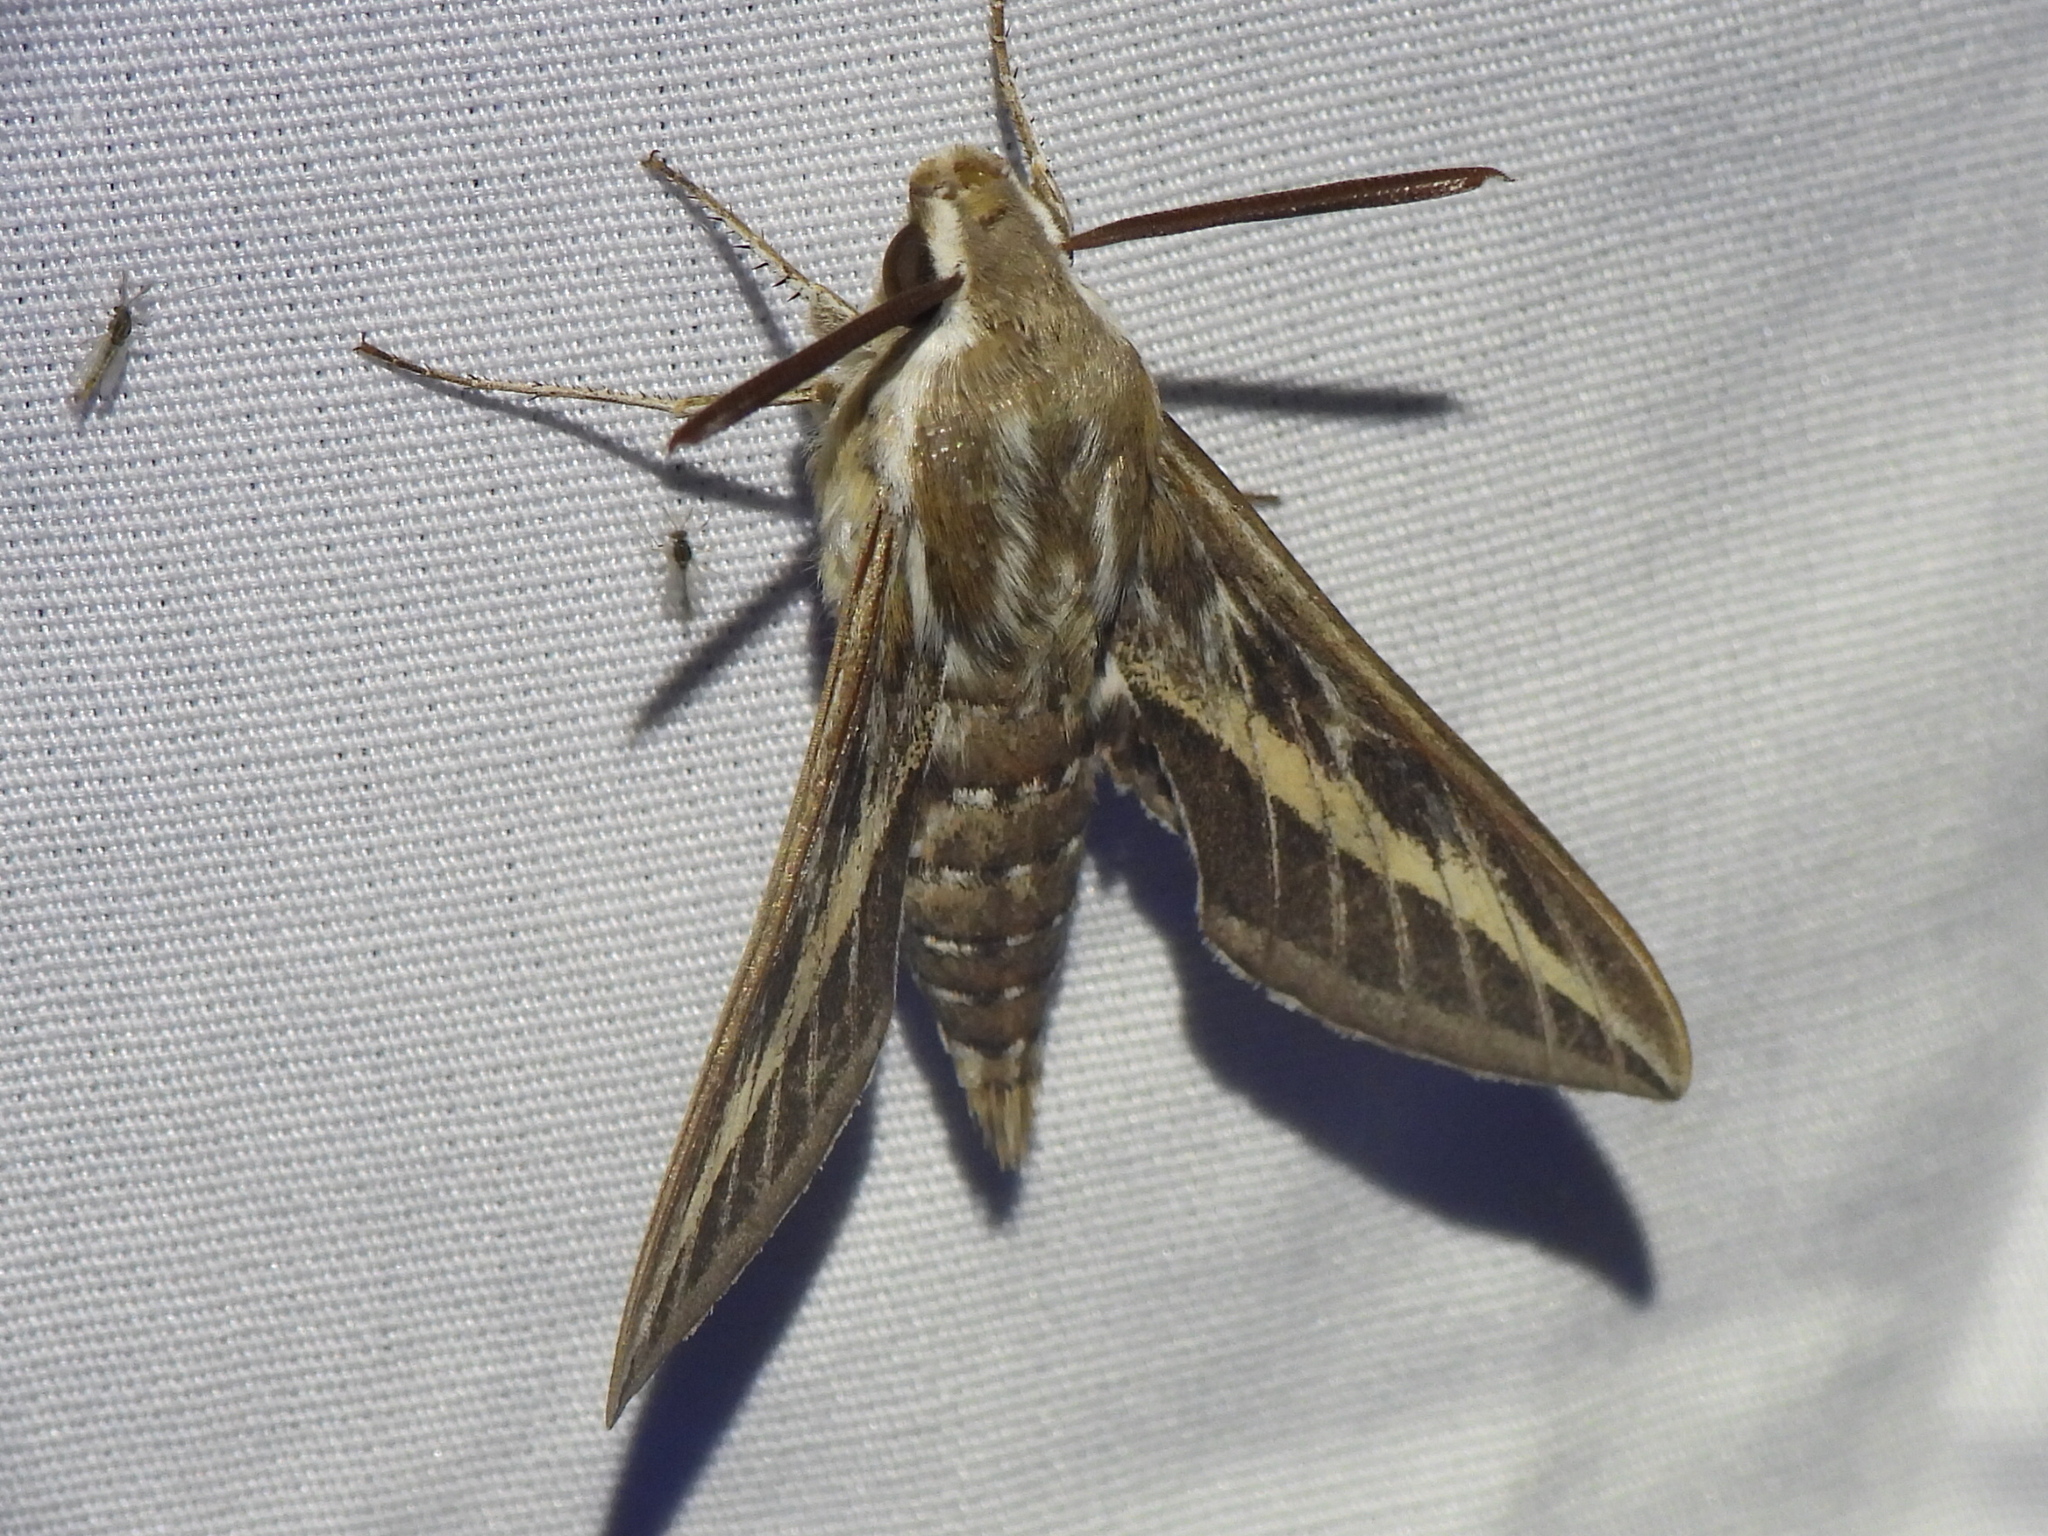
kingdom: Animalia
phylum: Arthropoda
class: Insecta
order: Lepidoptera
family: Sphingidae
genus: Hyles
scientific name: Hyles livornica
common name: Striped hawk-moth
